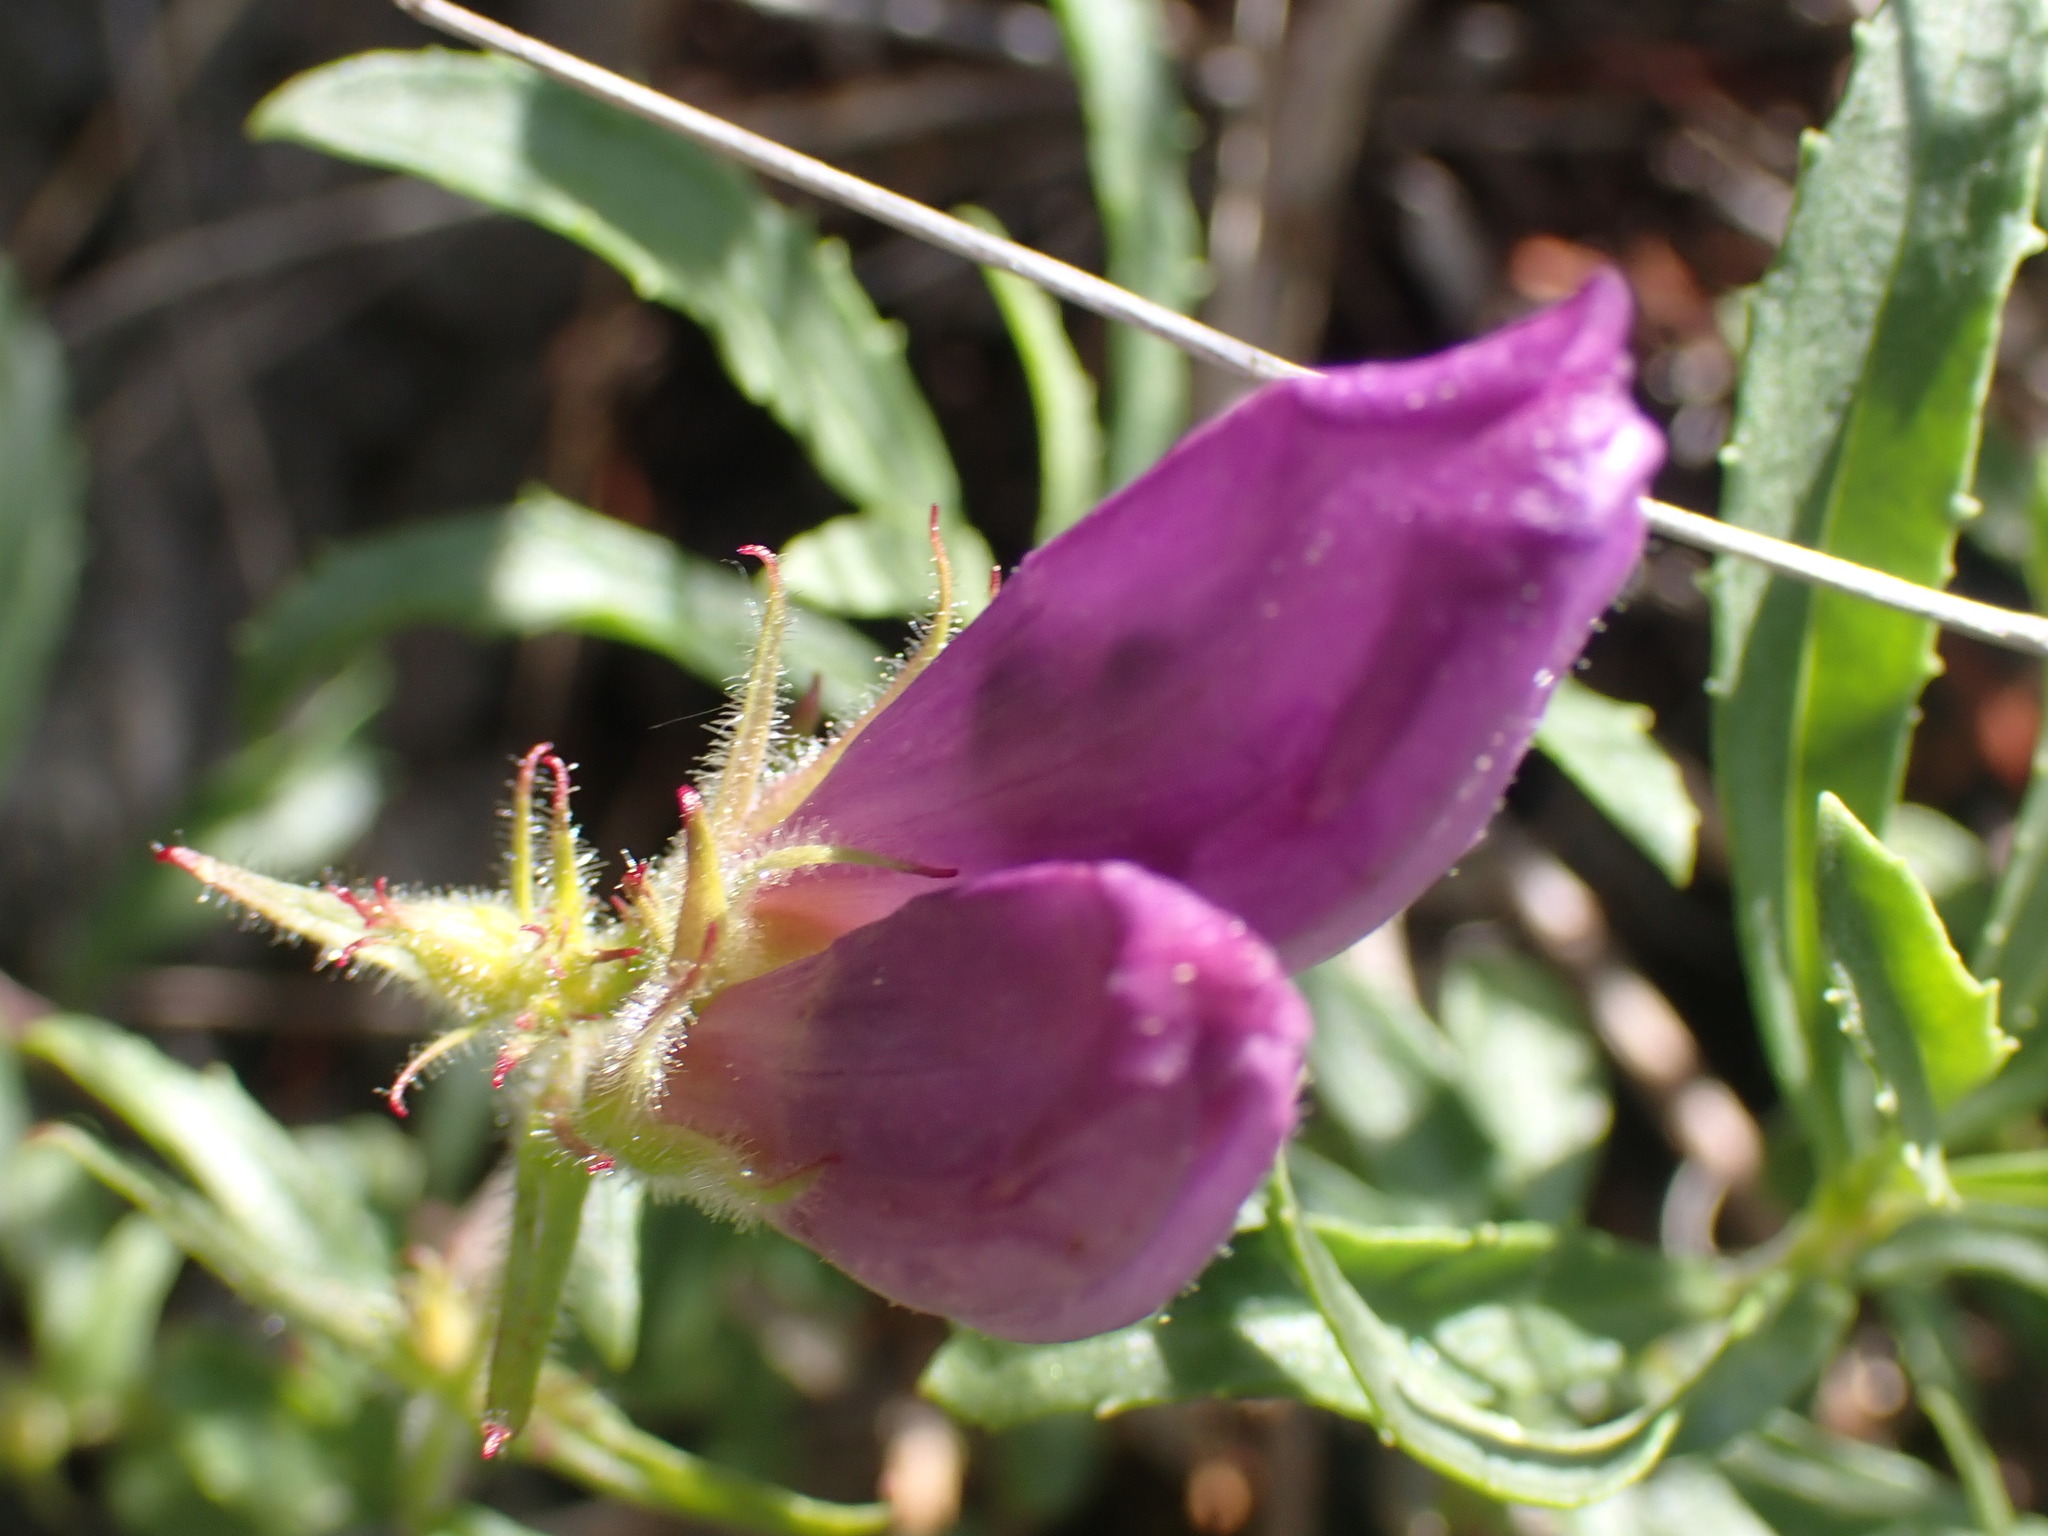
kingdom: Plantae
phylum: Tracheophyta
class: Magnoliopsida
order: Lamiales
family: Plantaginaceae
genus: Penstemon
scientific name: Penstemon fruticosus
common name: Bush penstemon
